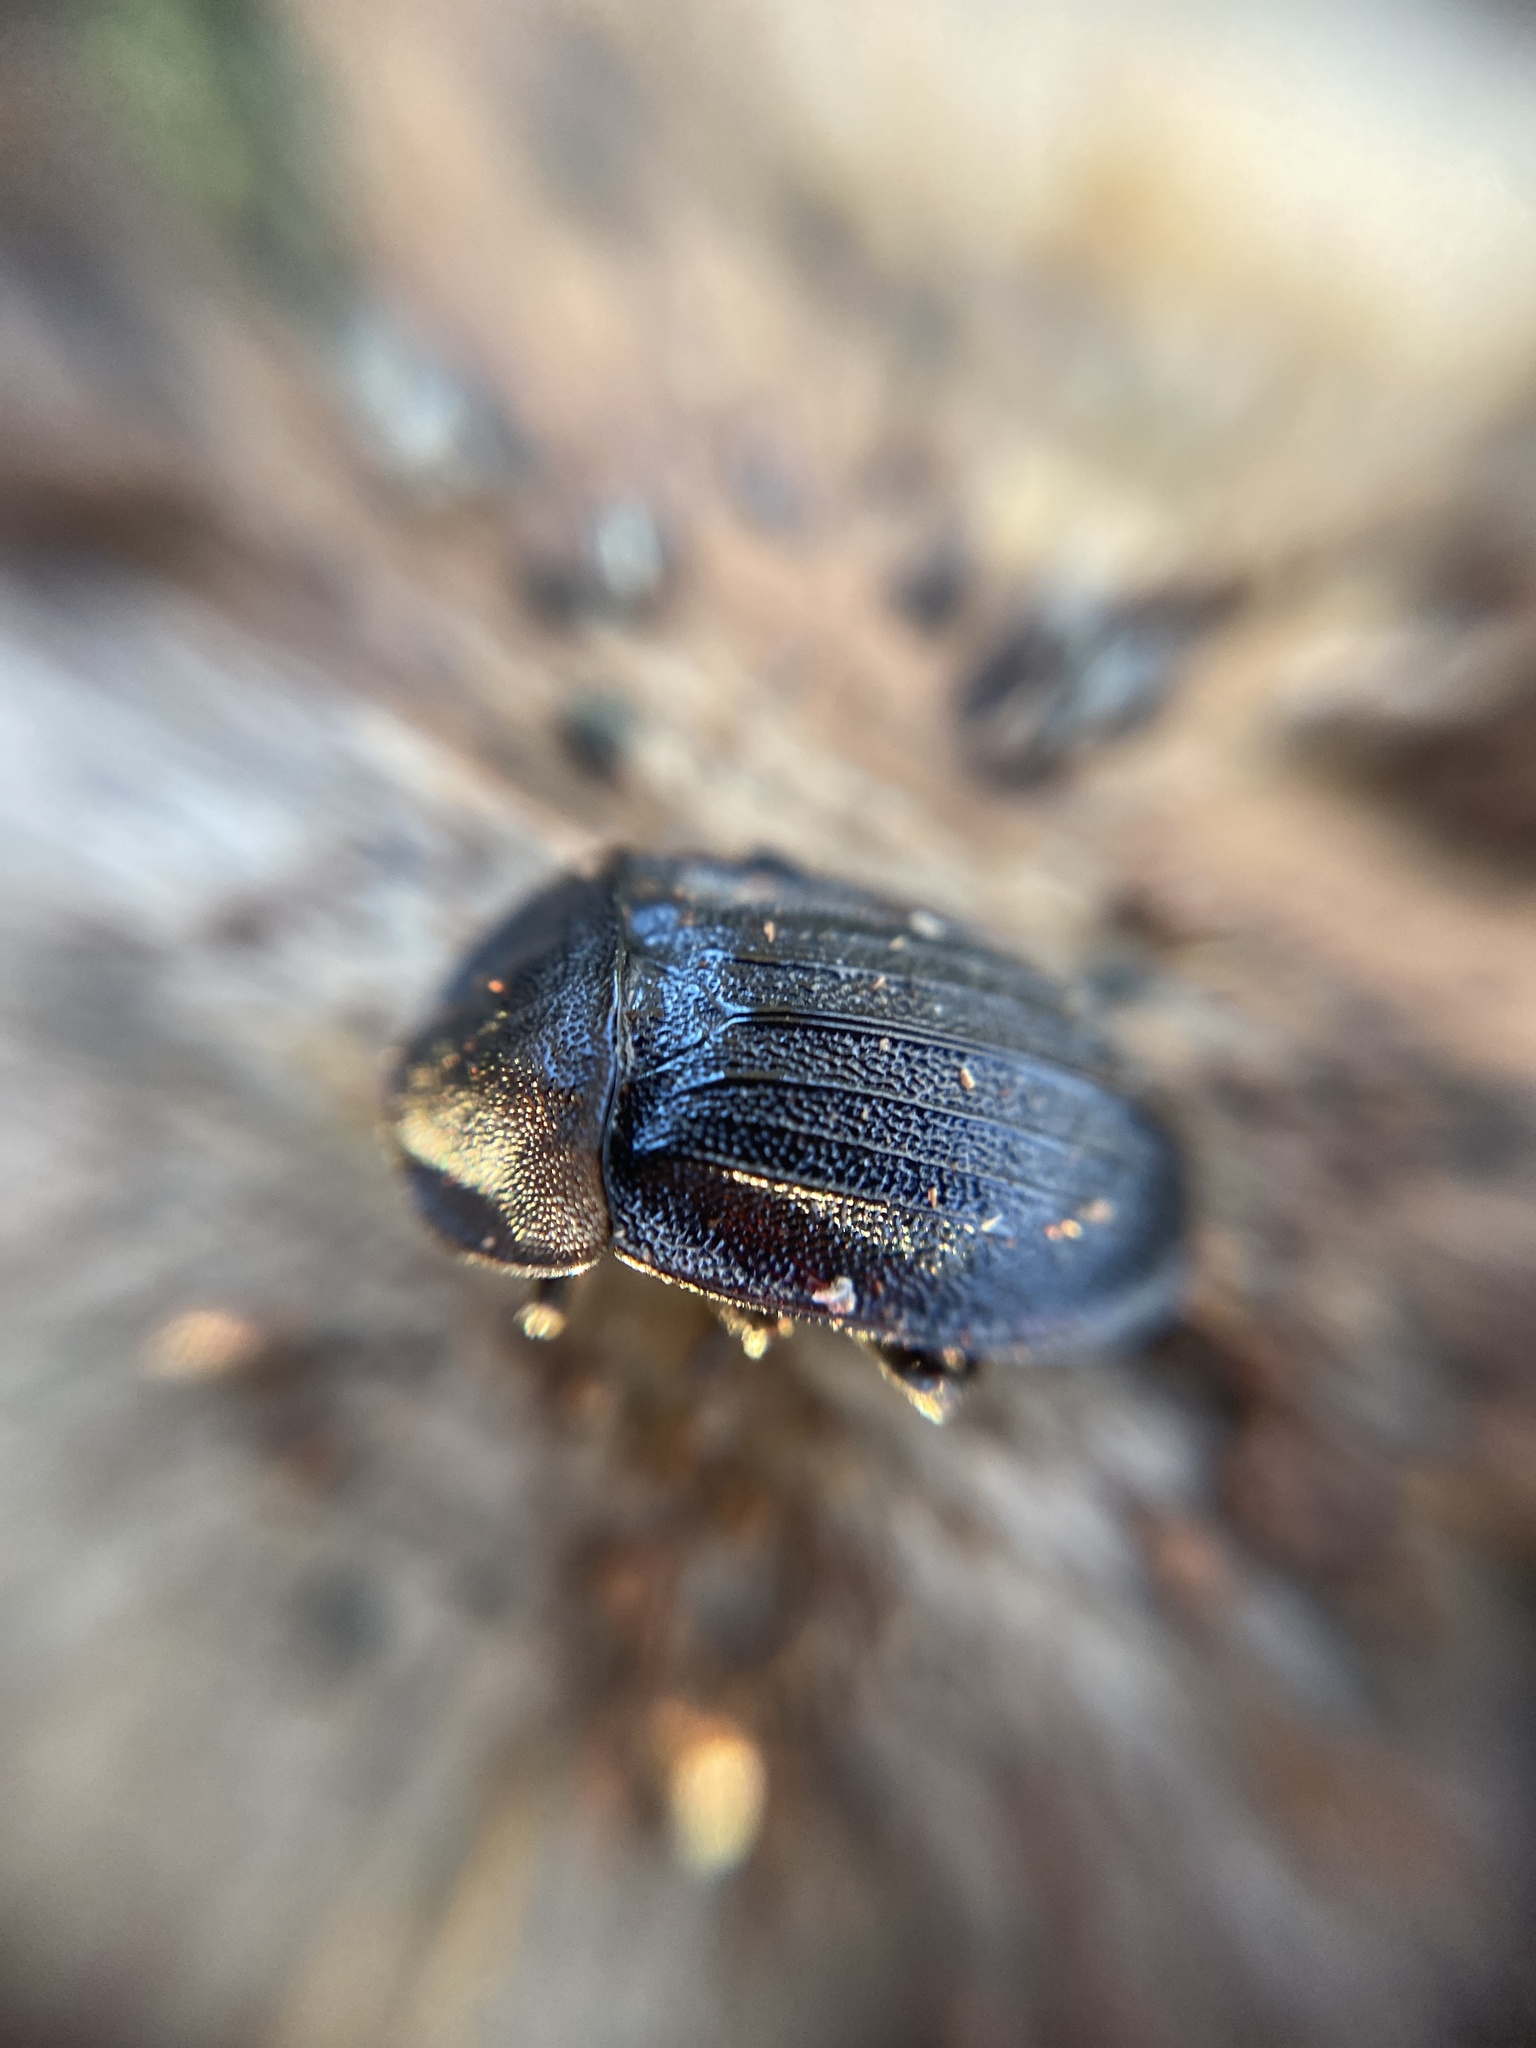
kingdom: Animalia
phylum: Arthropoda
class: Insecta
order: Coleoptera
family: Staphylinidae
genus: Silpha
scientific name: Silpha atrata
